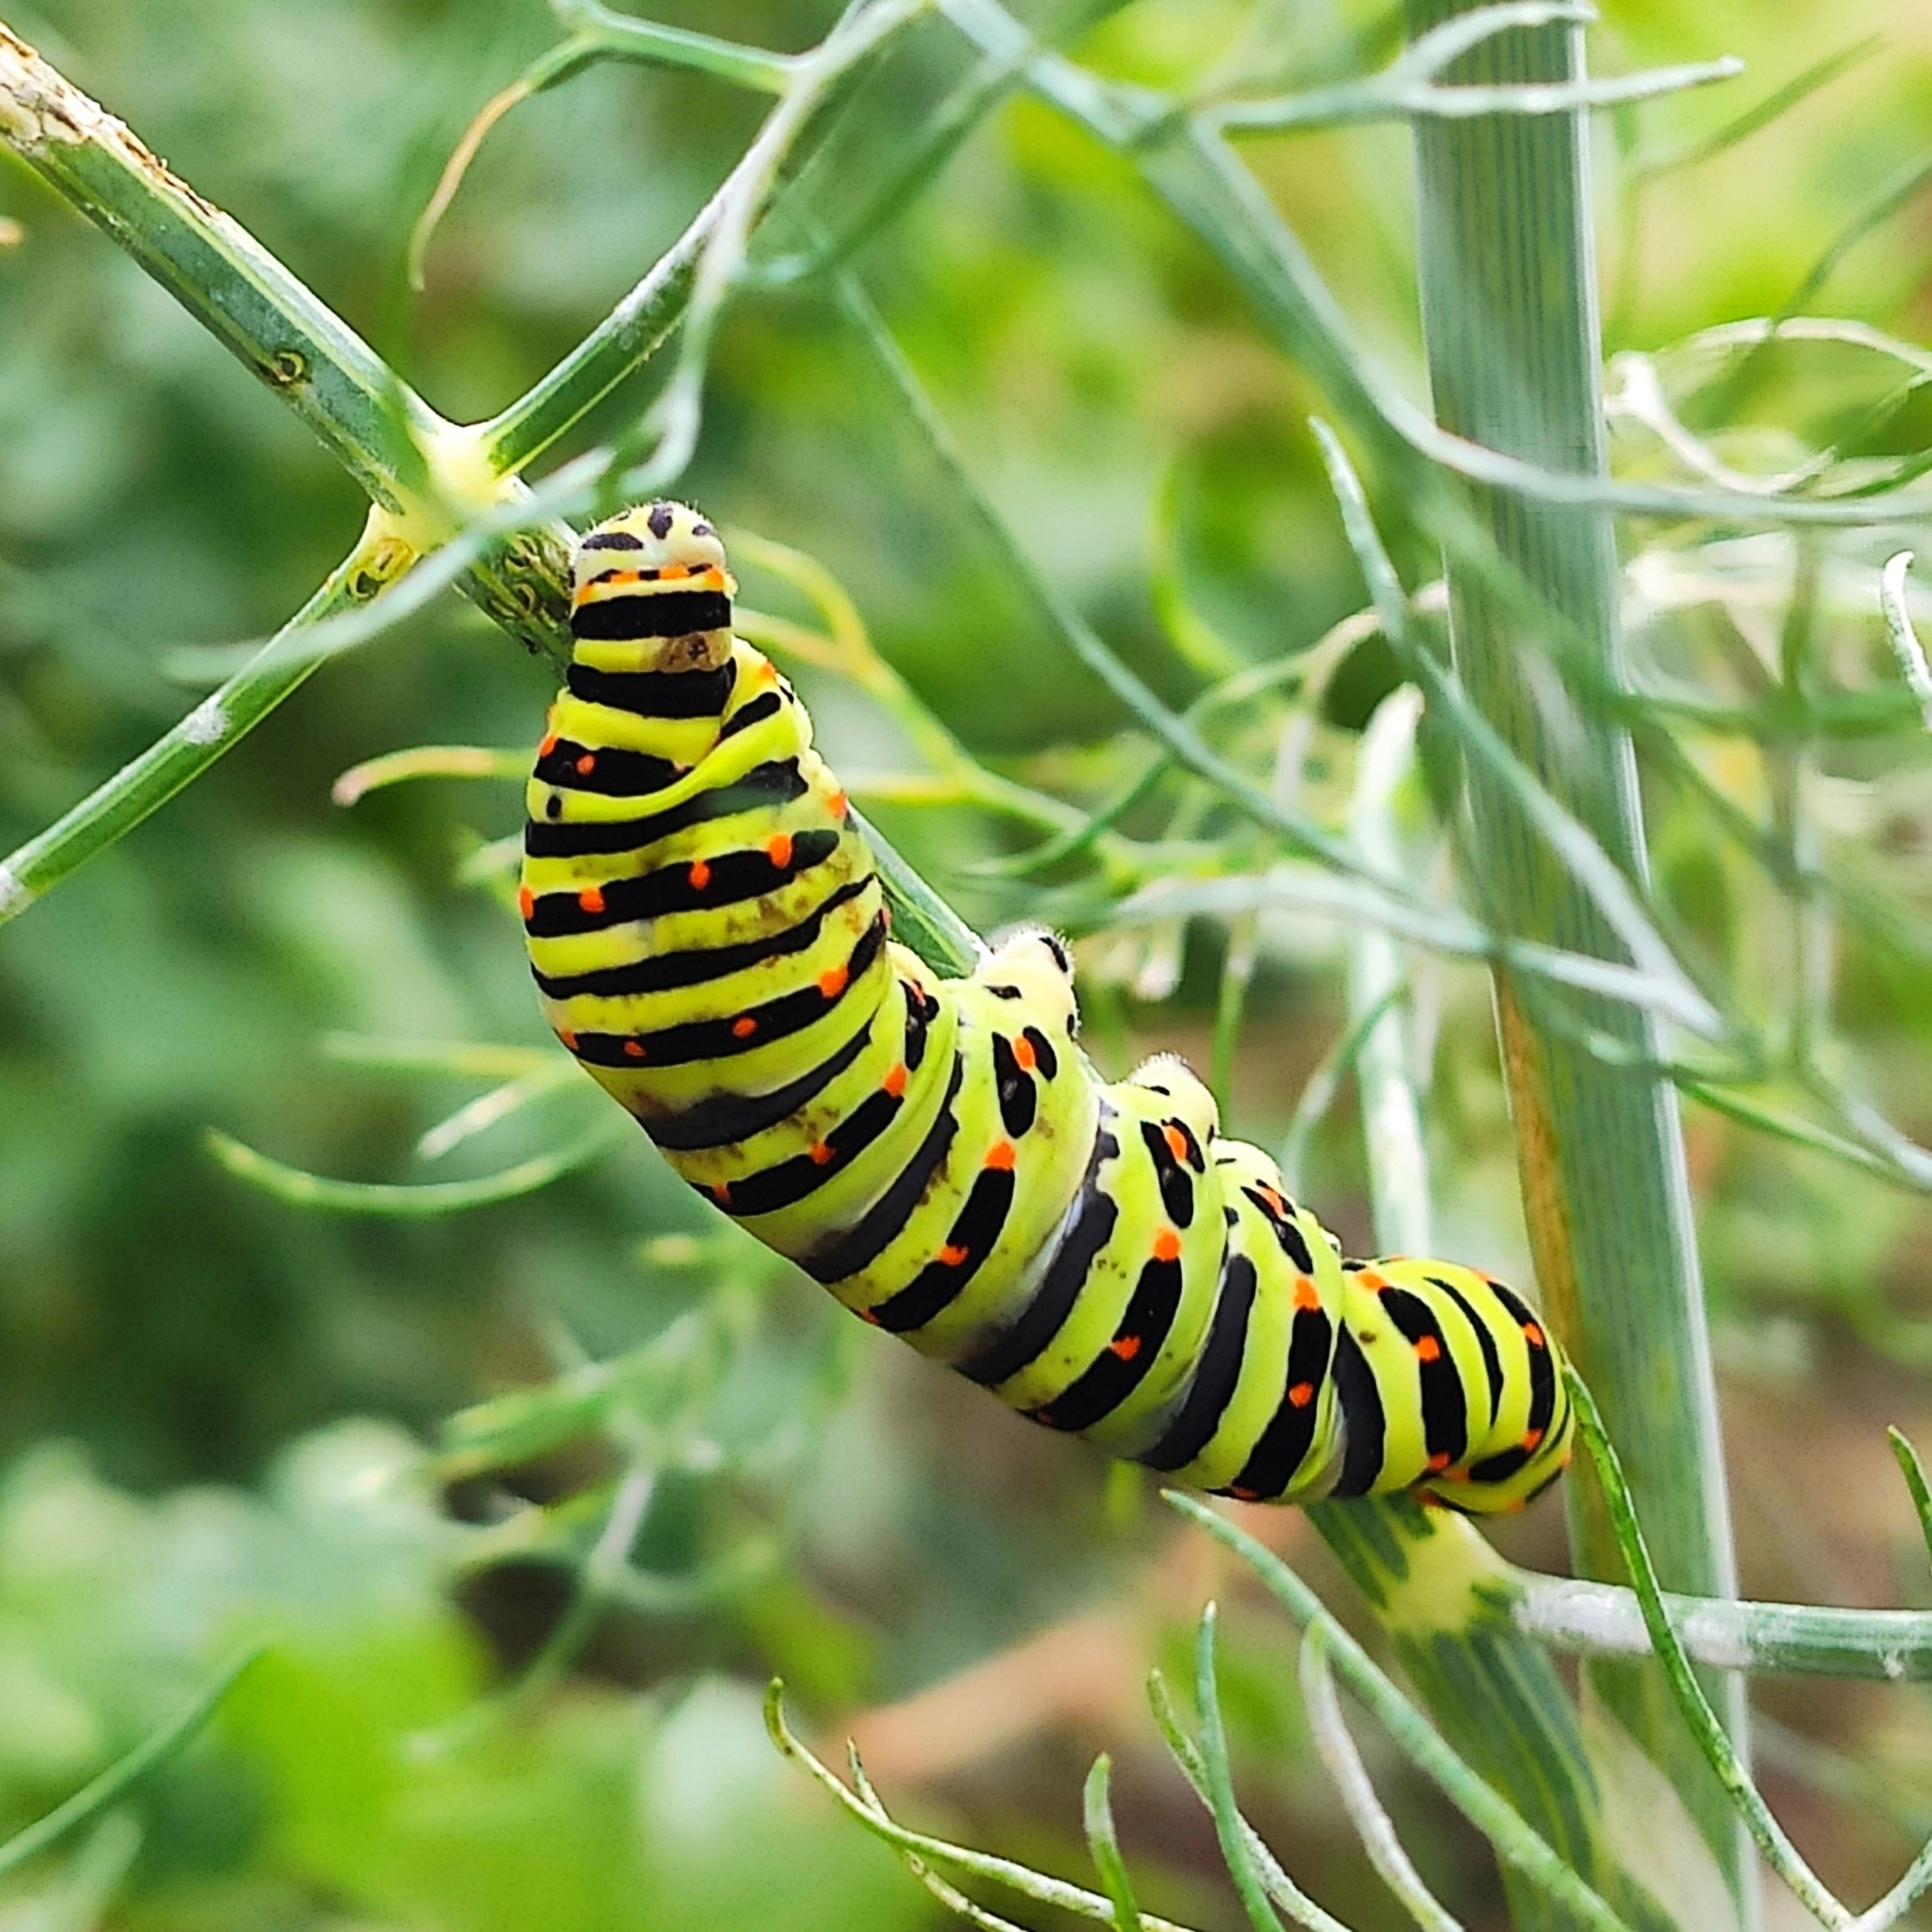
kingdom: Animalia
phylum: Arthropoda
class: Insecta
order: Lepidoptera
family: Papilionidae
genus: Papilio
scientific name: Papilio machaon
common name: Swallowtail
